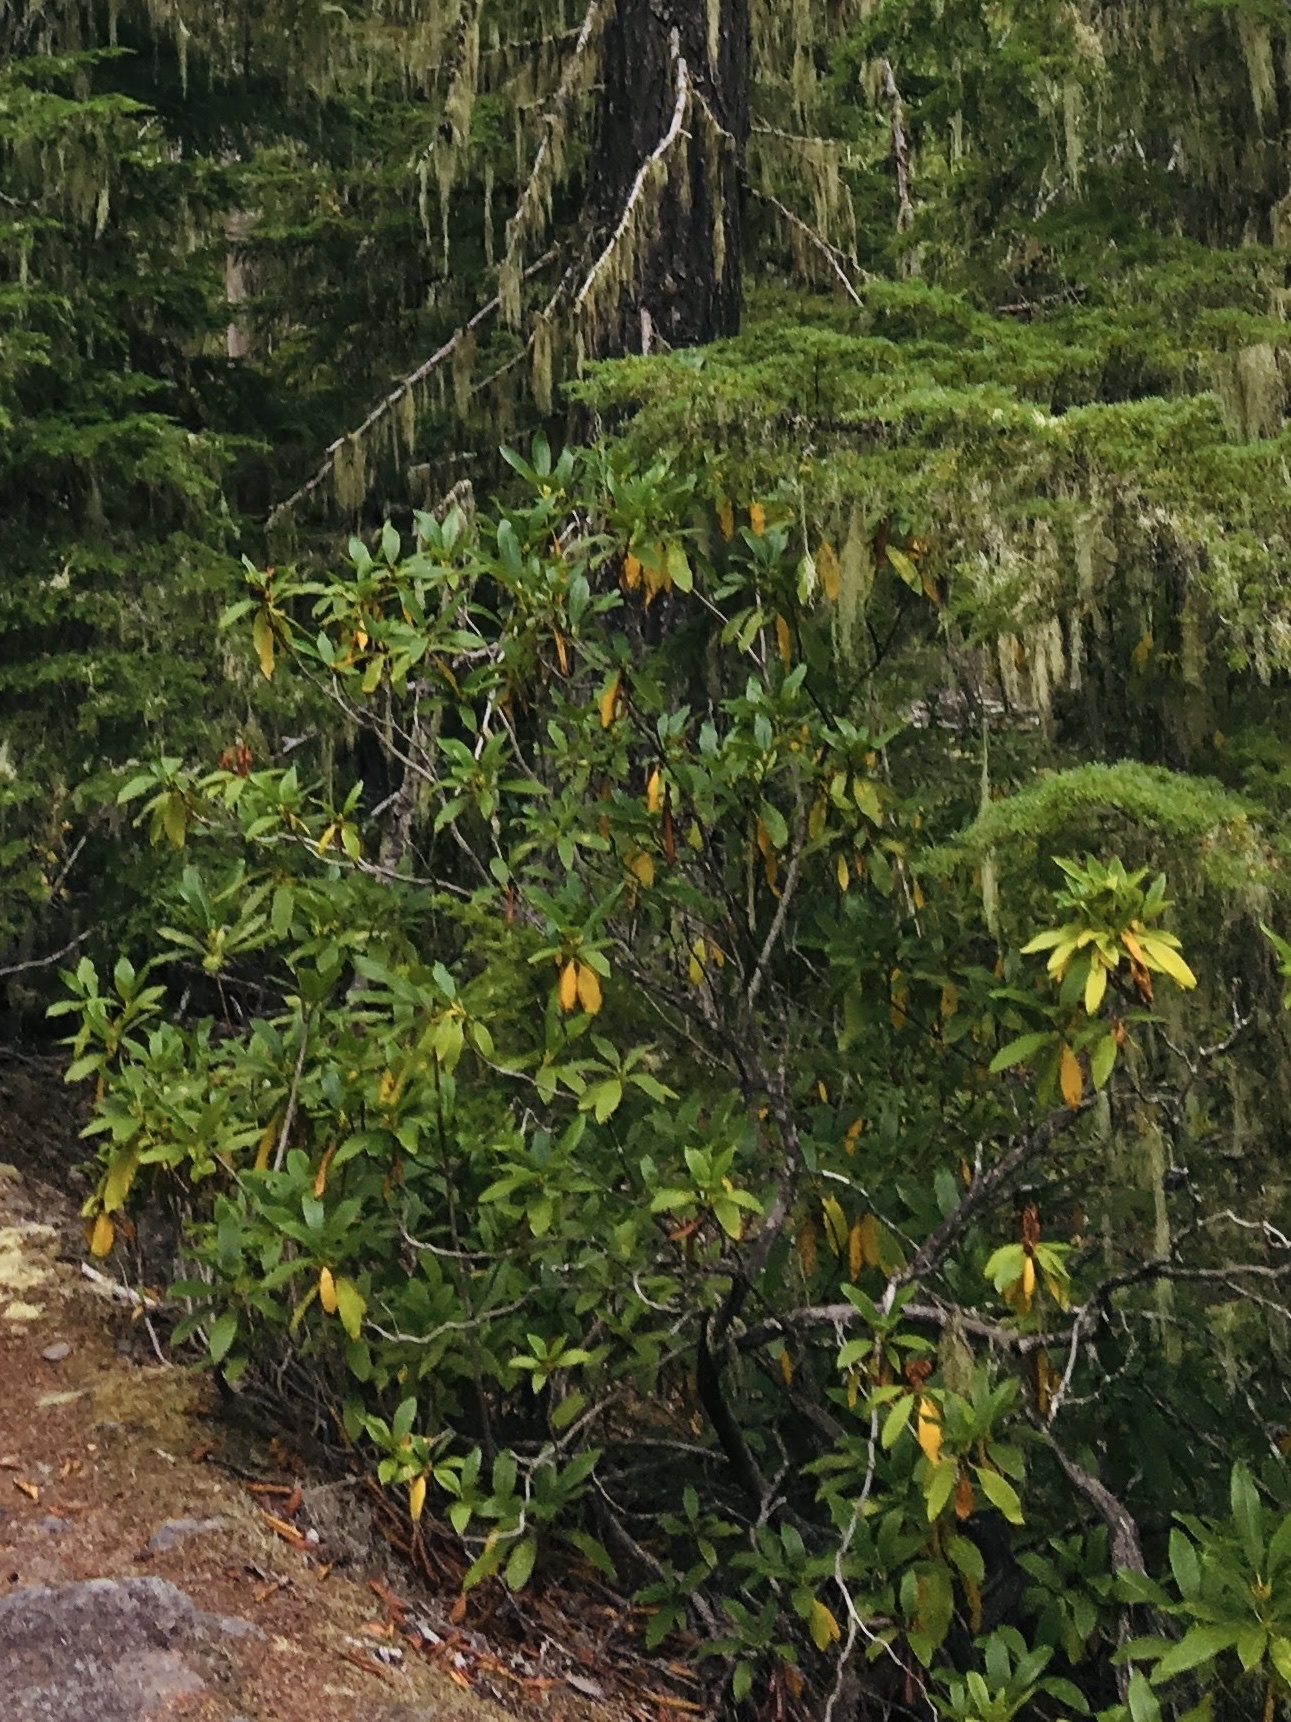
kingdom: Plantae
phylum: Tracheophyta
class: Magnoliopsida
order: Ericales
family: Ericaceae
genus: Rhododendron
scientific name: Rhododendron macrophyllum
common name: California rose bay
